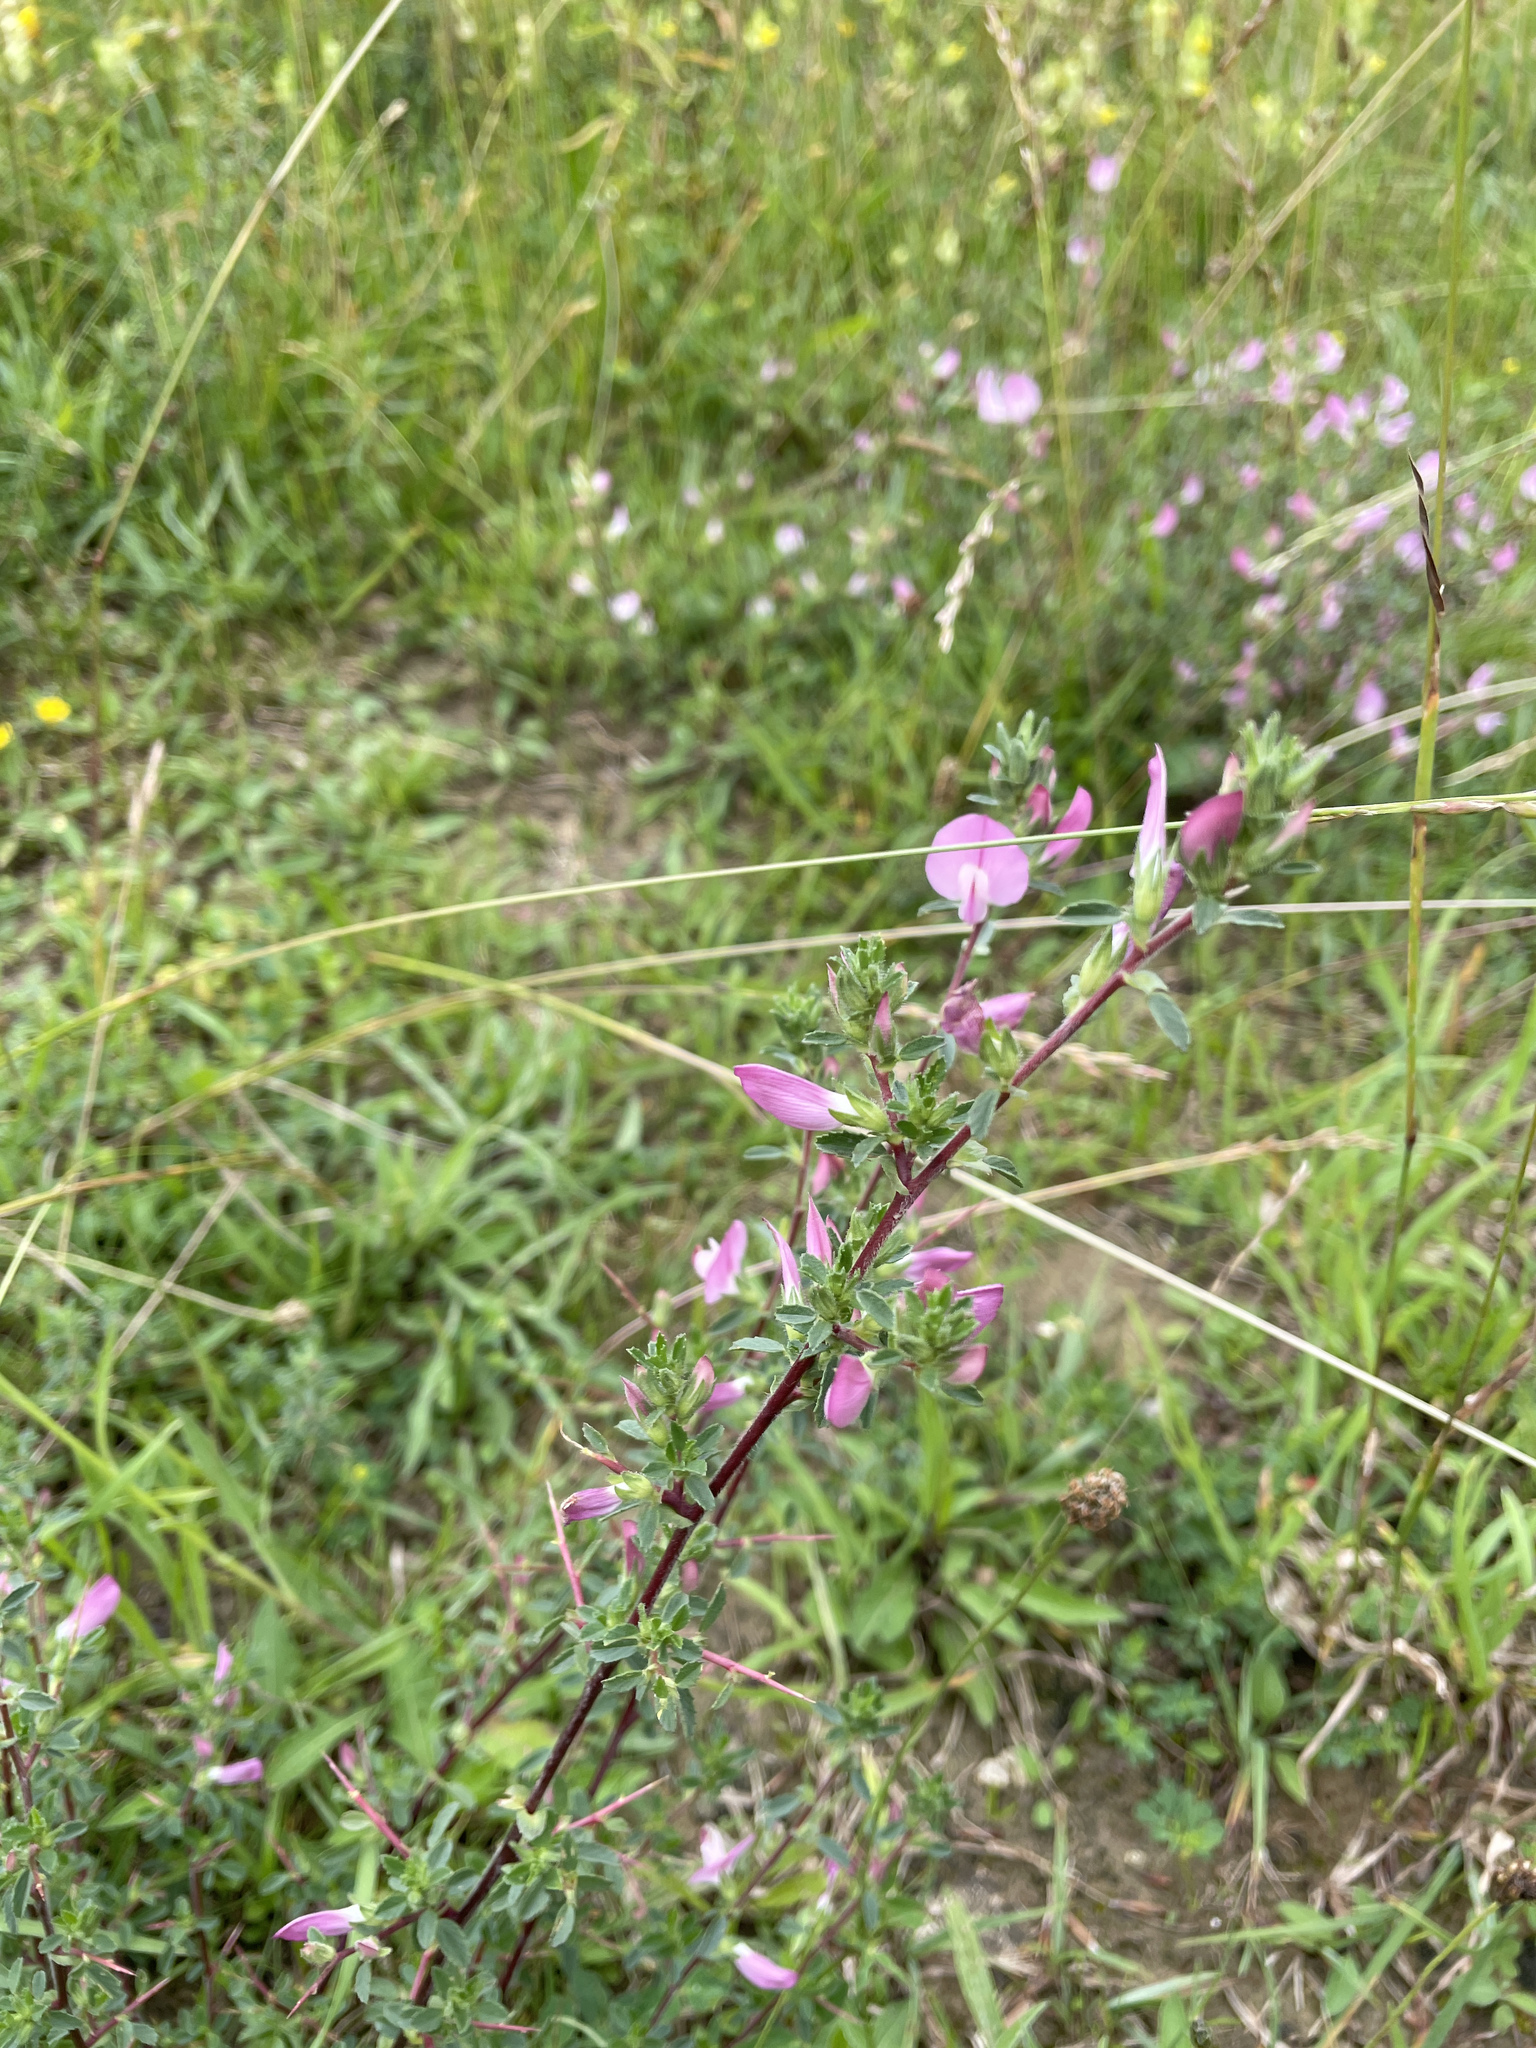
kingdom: Plantae
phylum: Tracheophyta
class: Magnoliopsida
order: Fabales
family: Fabaceae
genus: Ononis
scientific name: Ononis spinosa
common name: Spiny restharrow
